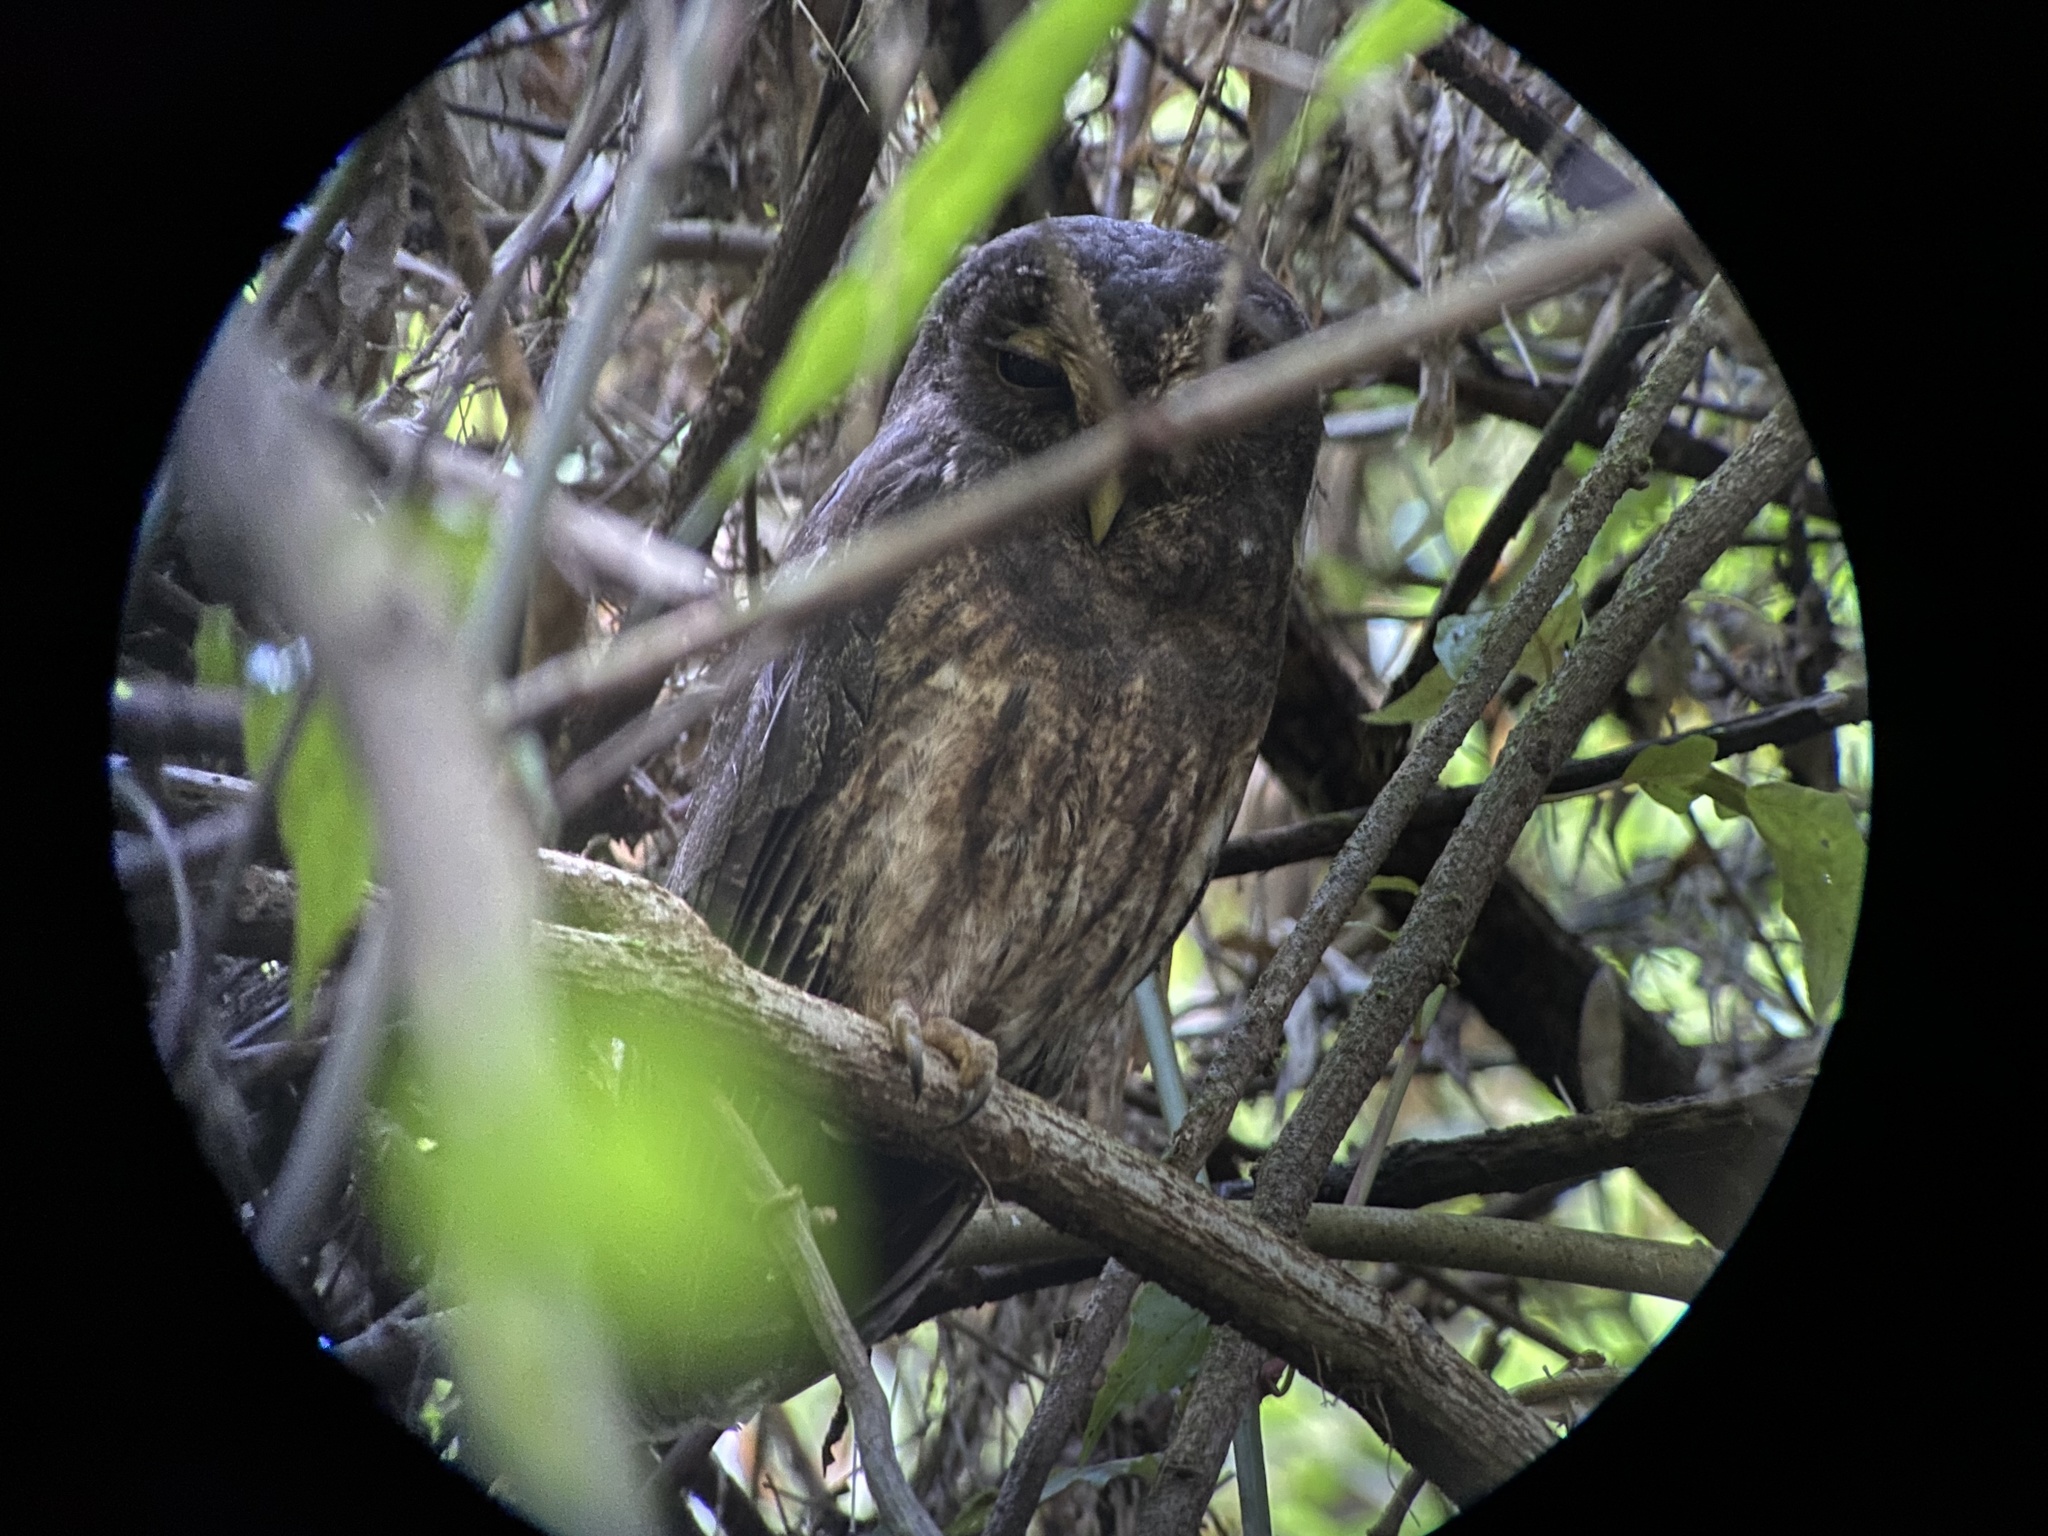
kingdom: Animalia
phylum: Chordata
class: Aves
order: Strigiformes
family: Strigidae
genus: Strix
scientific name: Strix virgata
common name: Mottled owl
